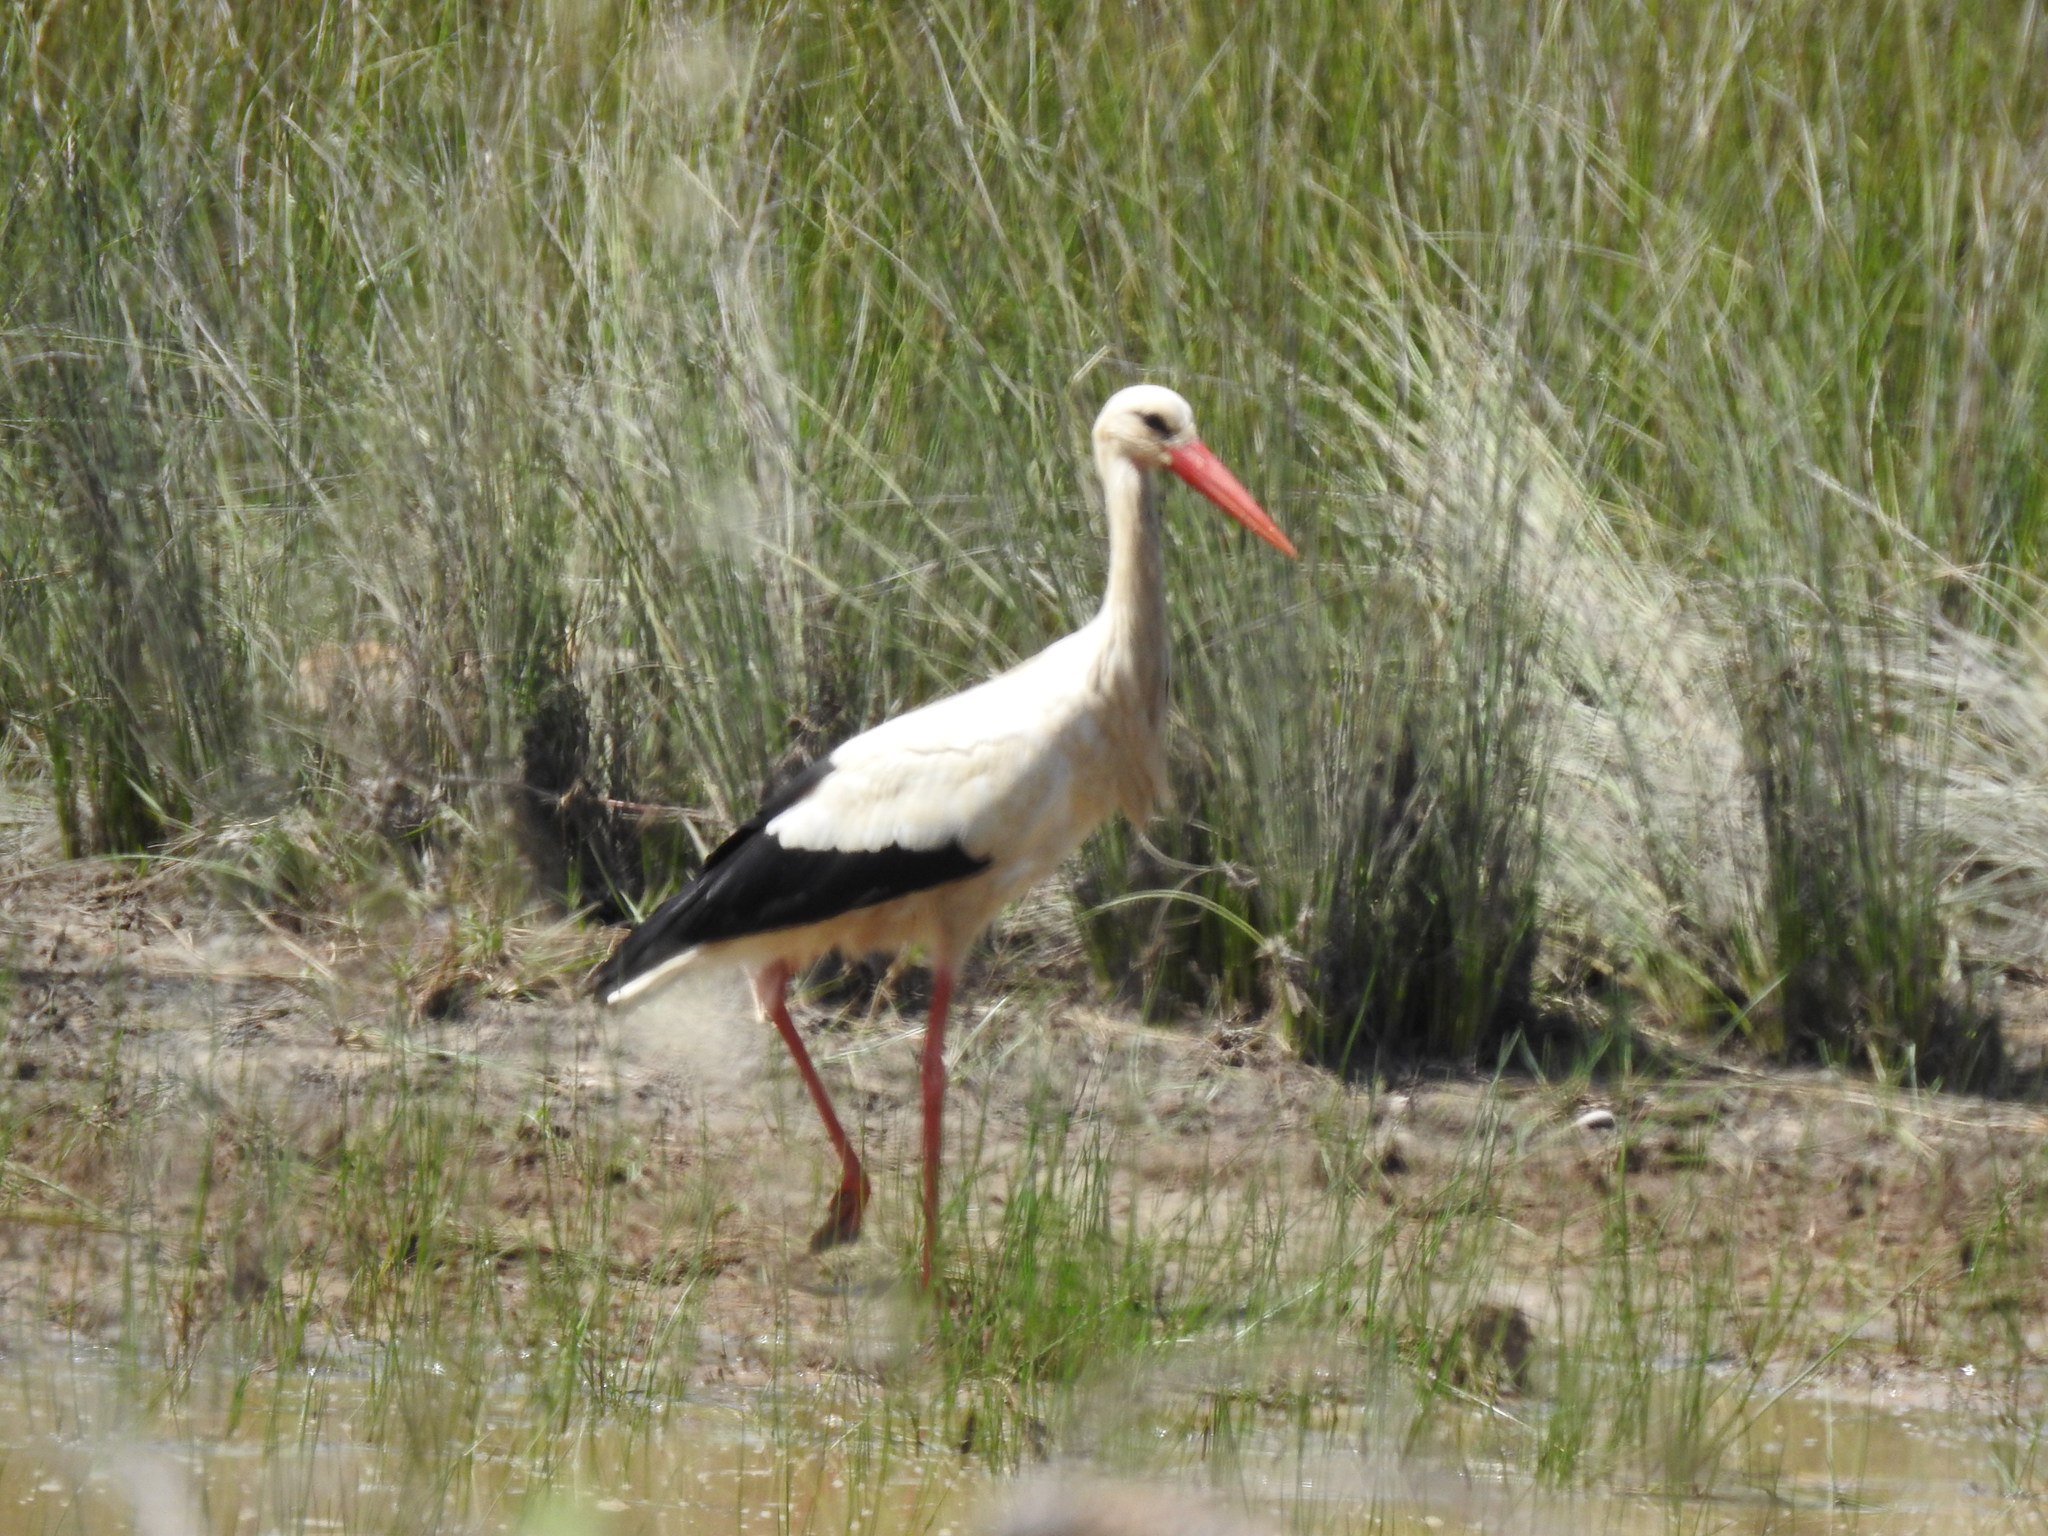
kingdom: Animalia
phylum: Chordata
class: Aves
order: Ciconiiformes
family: Ciconiidae
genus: Ciconia
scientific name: Ciconia ciconia
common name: White stork
